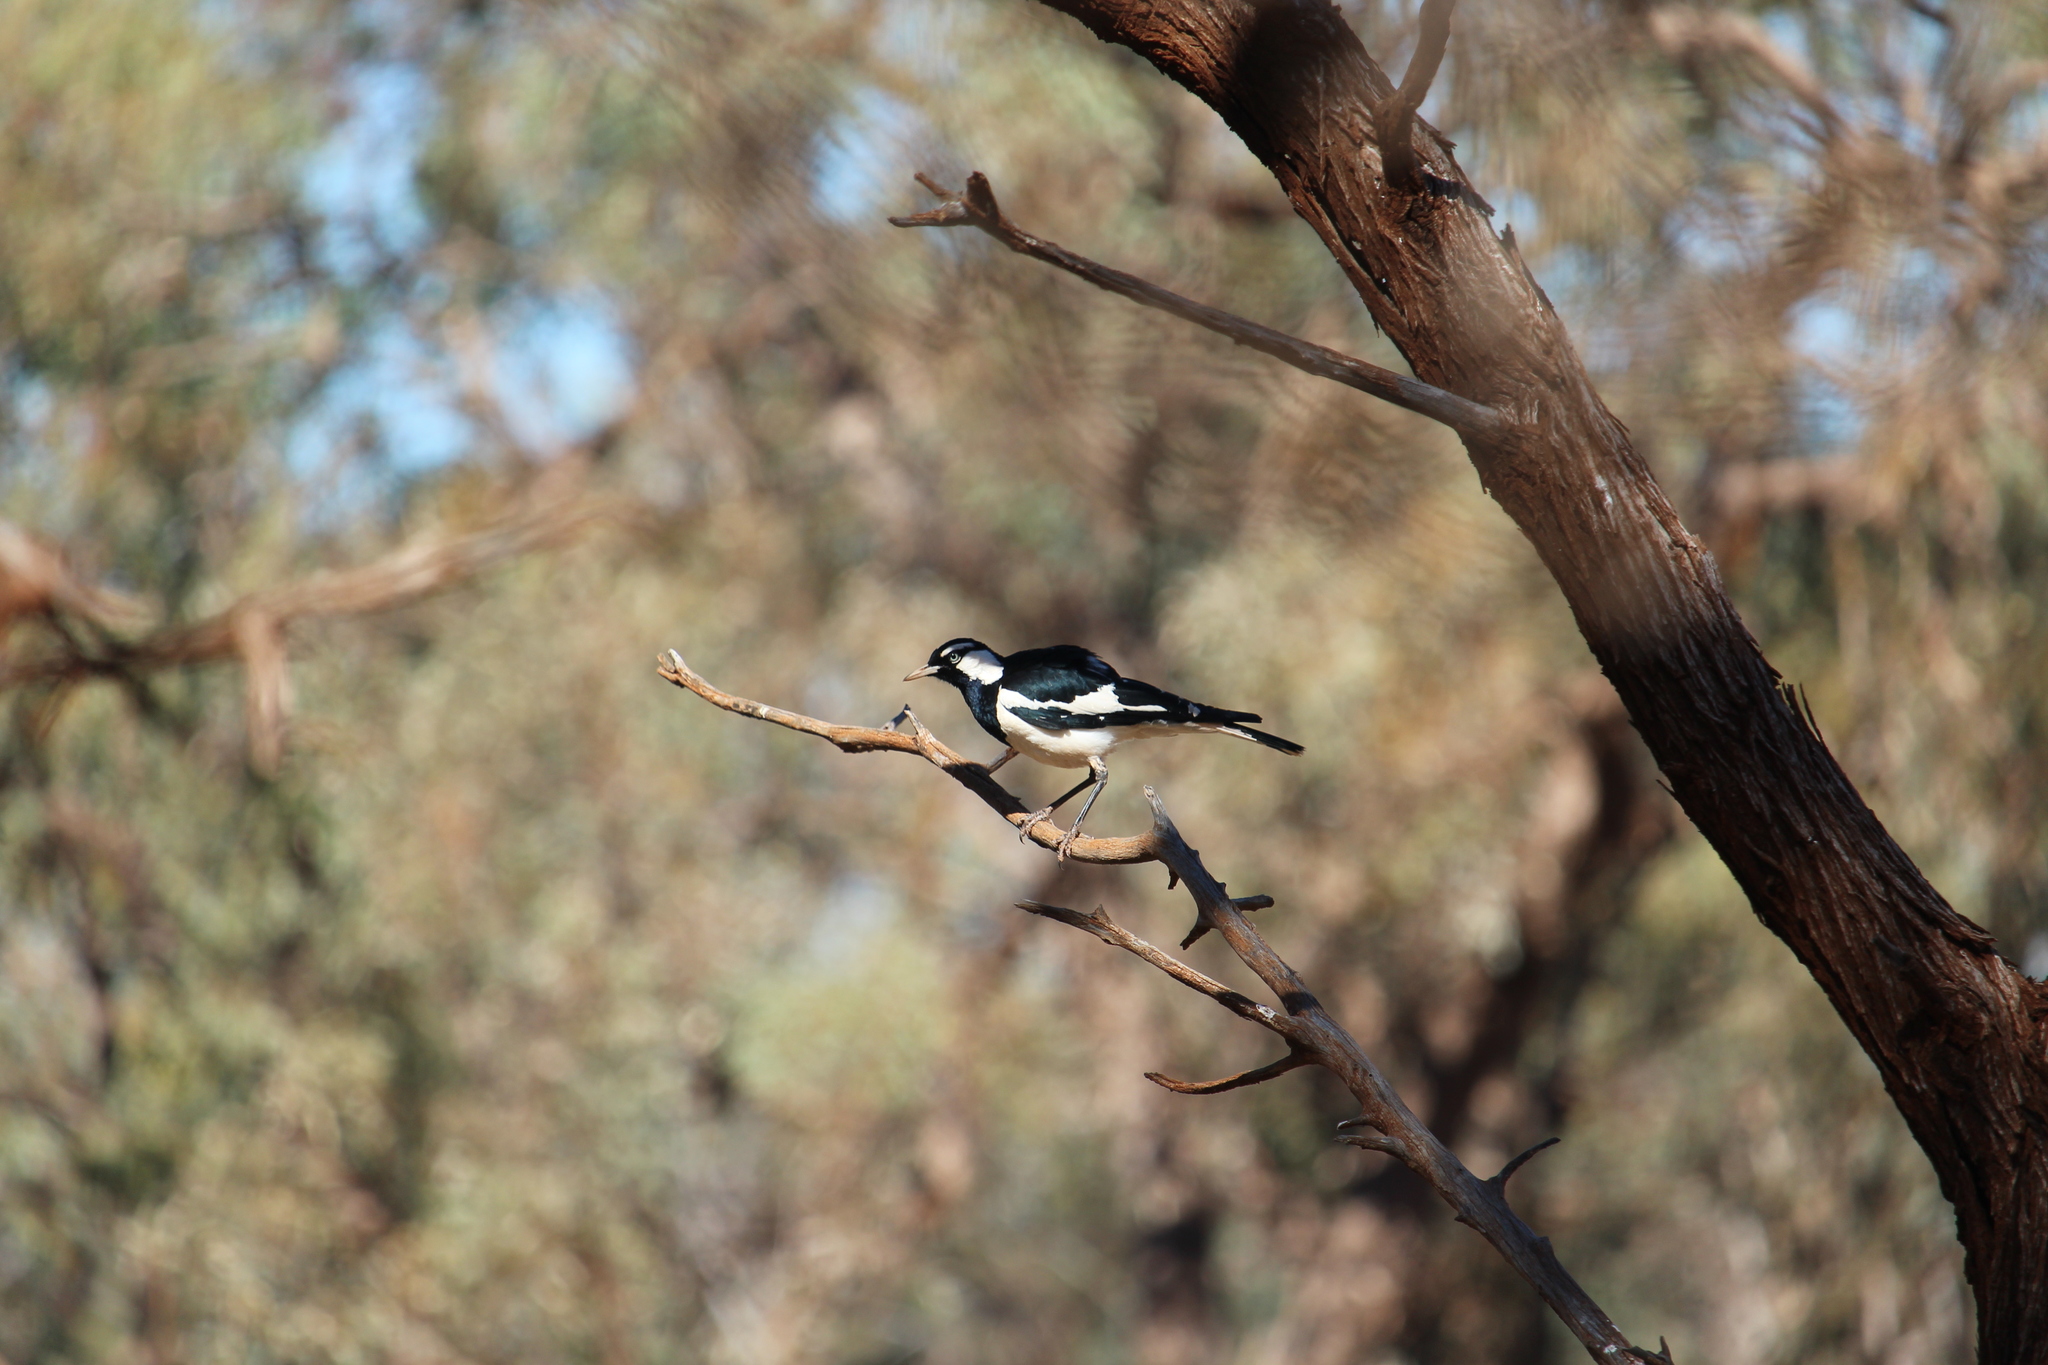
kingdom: Animalia
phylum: Chordata
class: Aves
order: Passeriformes
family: Monarchidae
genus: Grallina
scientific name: Grallina cyanoleuca
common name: Magpie-lark
